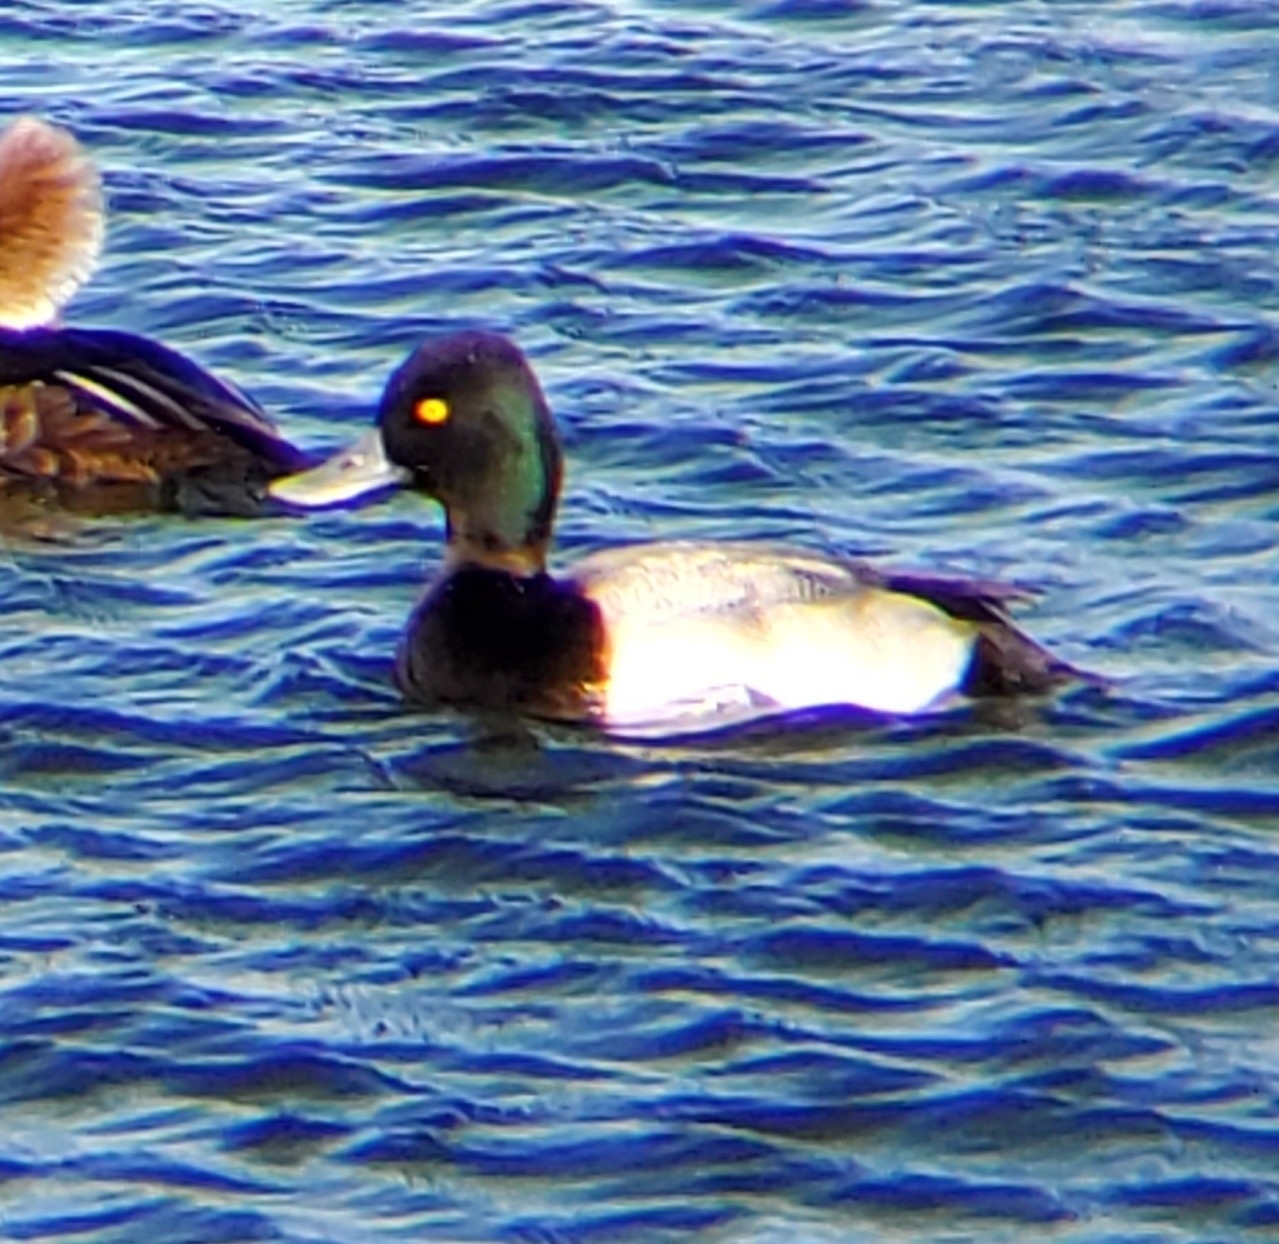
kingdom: Animalia
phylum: Chordata
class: Aves
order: Anseriformes
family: Anatidae
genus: Aythya
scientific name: Aythya affinis
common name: Lesser scaup
